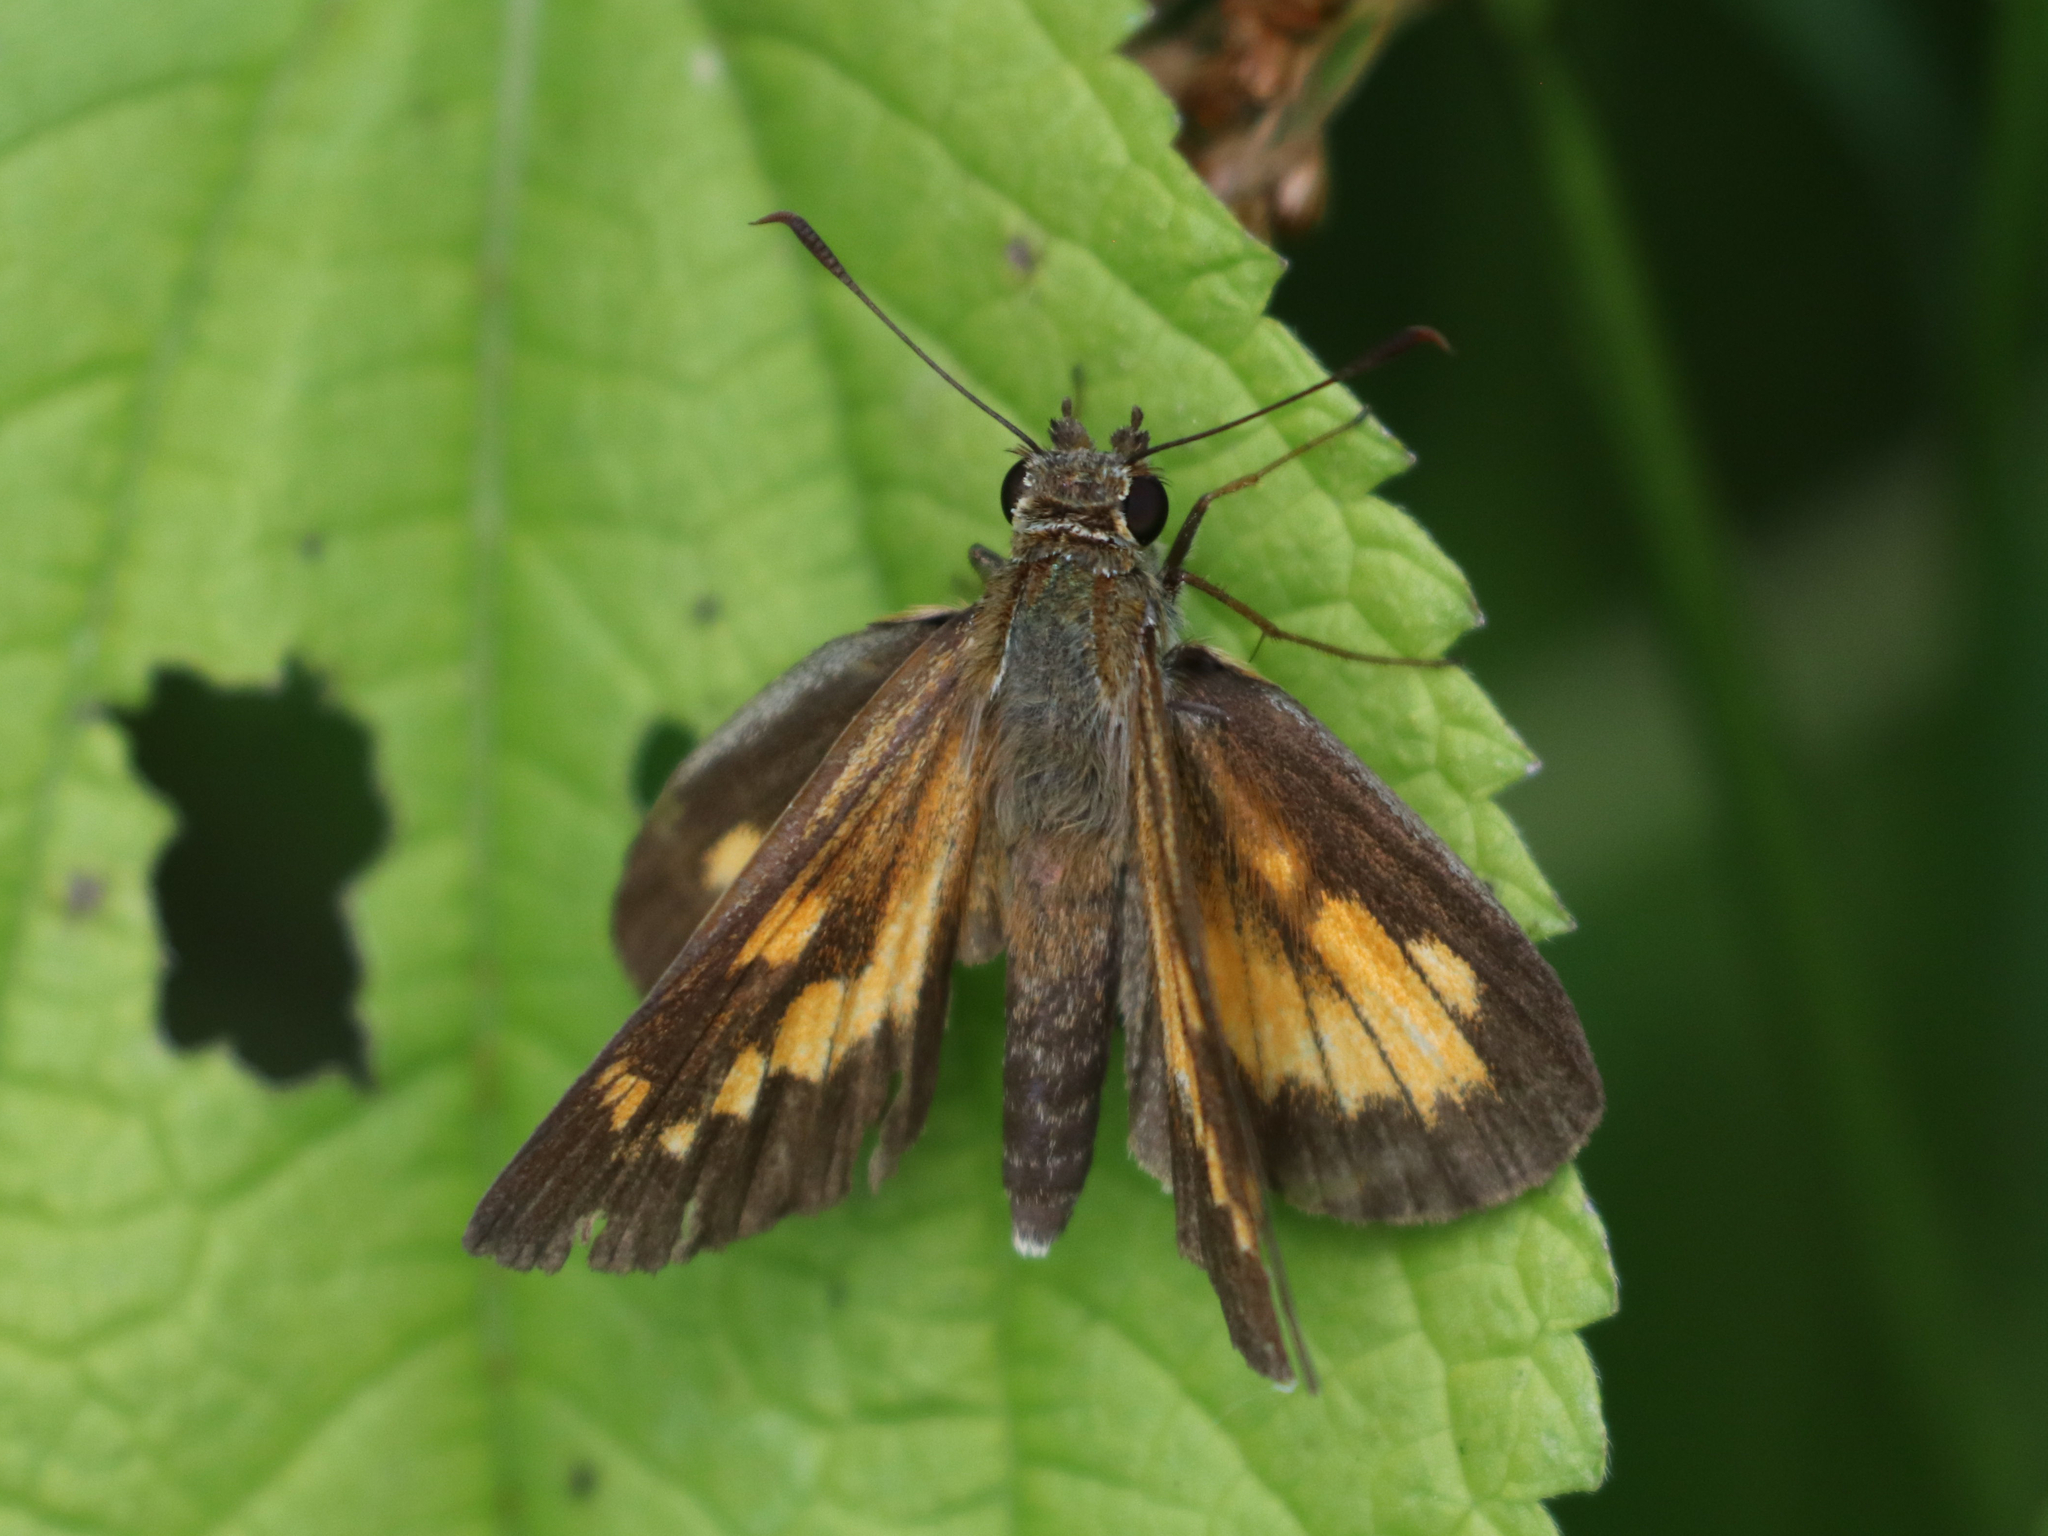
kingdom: Animalia
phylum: Arthropoda
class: Insecta
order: Lepidoptera
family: Hesperiidae
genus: Poanes
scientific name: Poanes viator
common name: Broad-winged skipper
